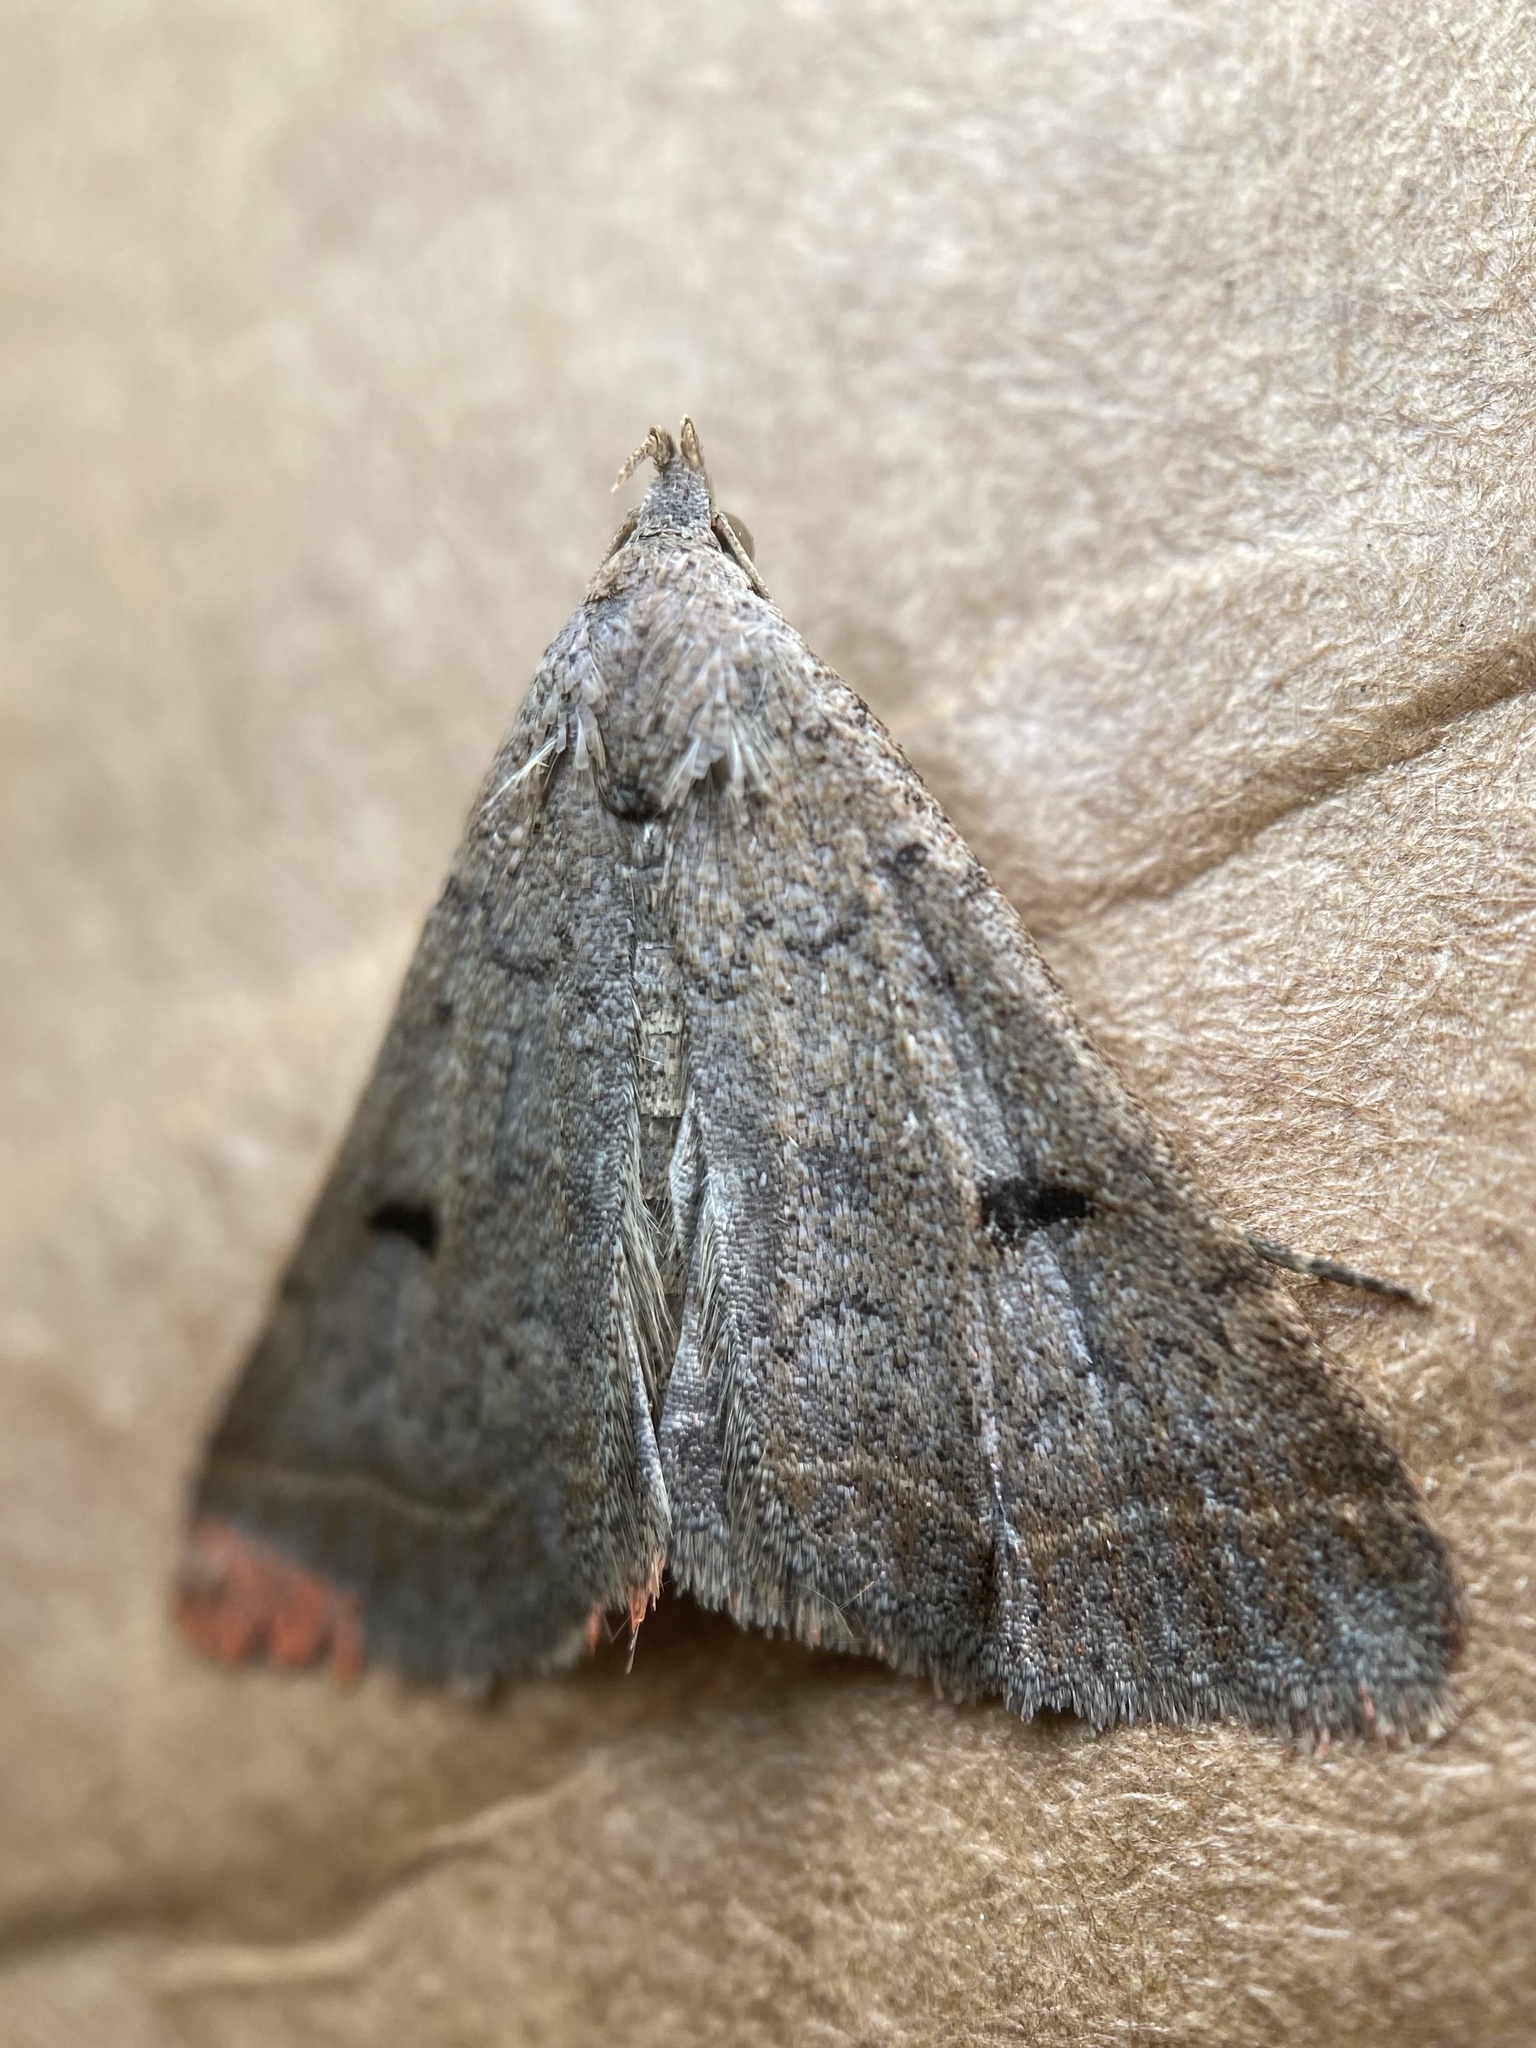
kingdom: Animalia
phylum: Arthropoda
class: Insecta
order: Lepidoptera
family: Erebidae
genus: Bleptina
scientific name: Bleptina caradrinalis
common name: Bent-winged owlet
